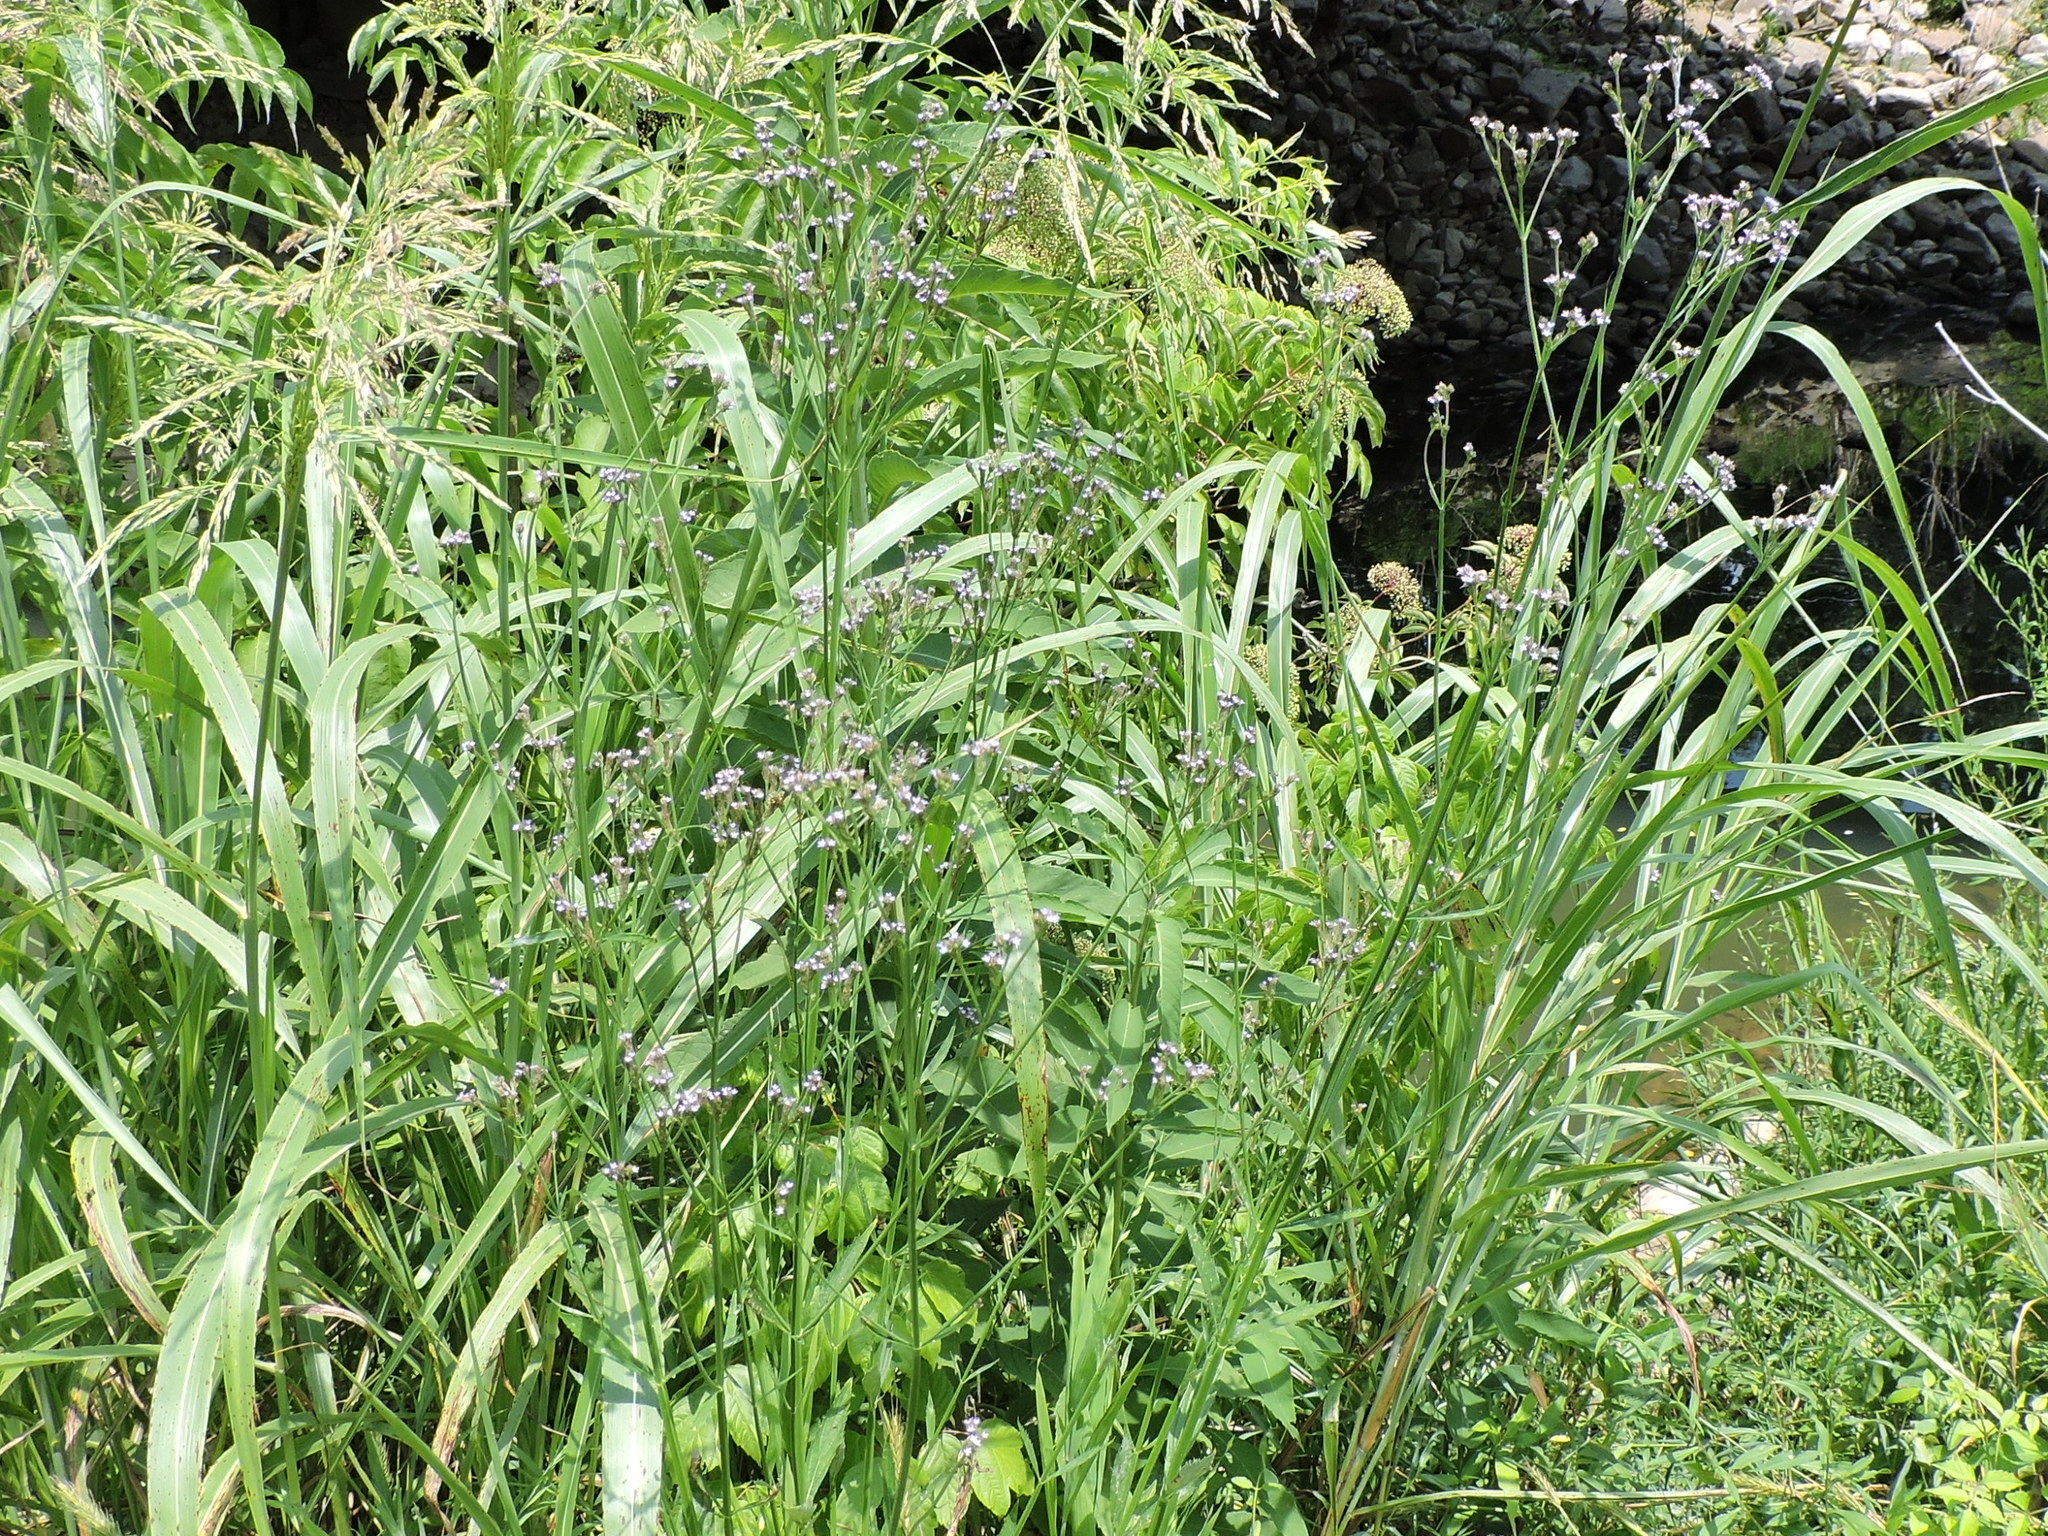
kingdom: Plantae
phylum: Tracheophyta
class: Magnoliopsida
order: Lamiales
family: Verbenaceae
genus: Verbena
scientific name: Verbena brasiliensis
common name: Brazilian vervain
